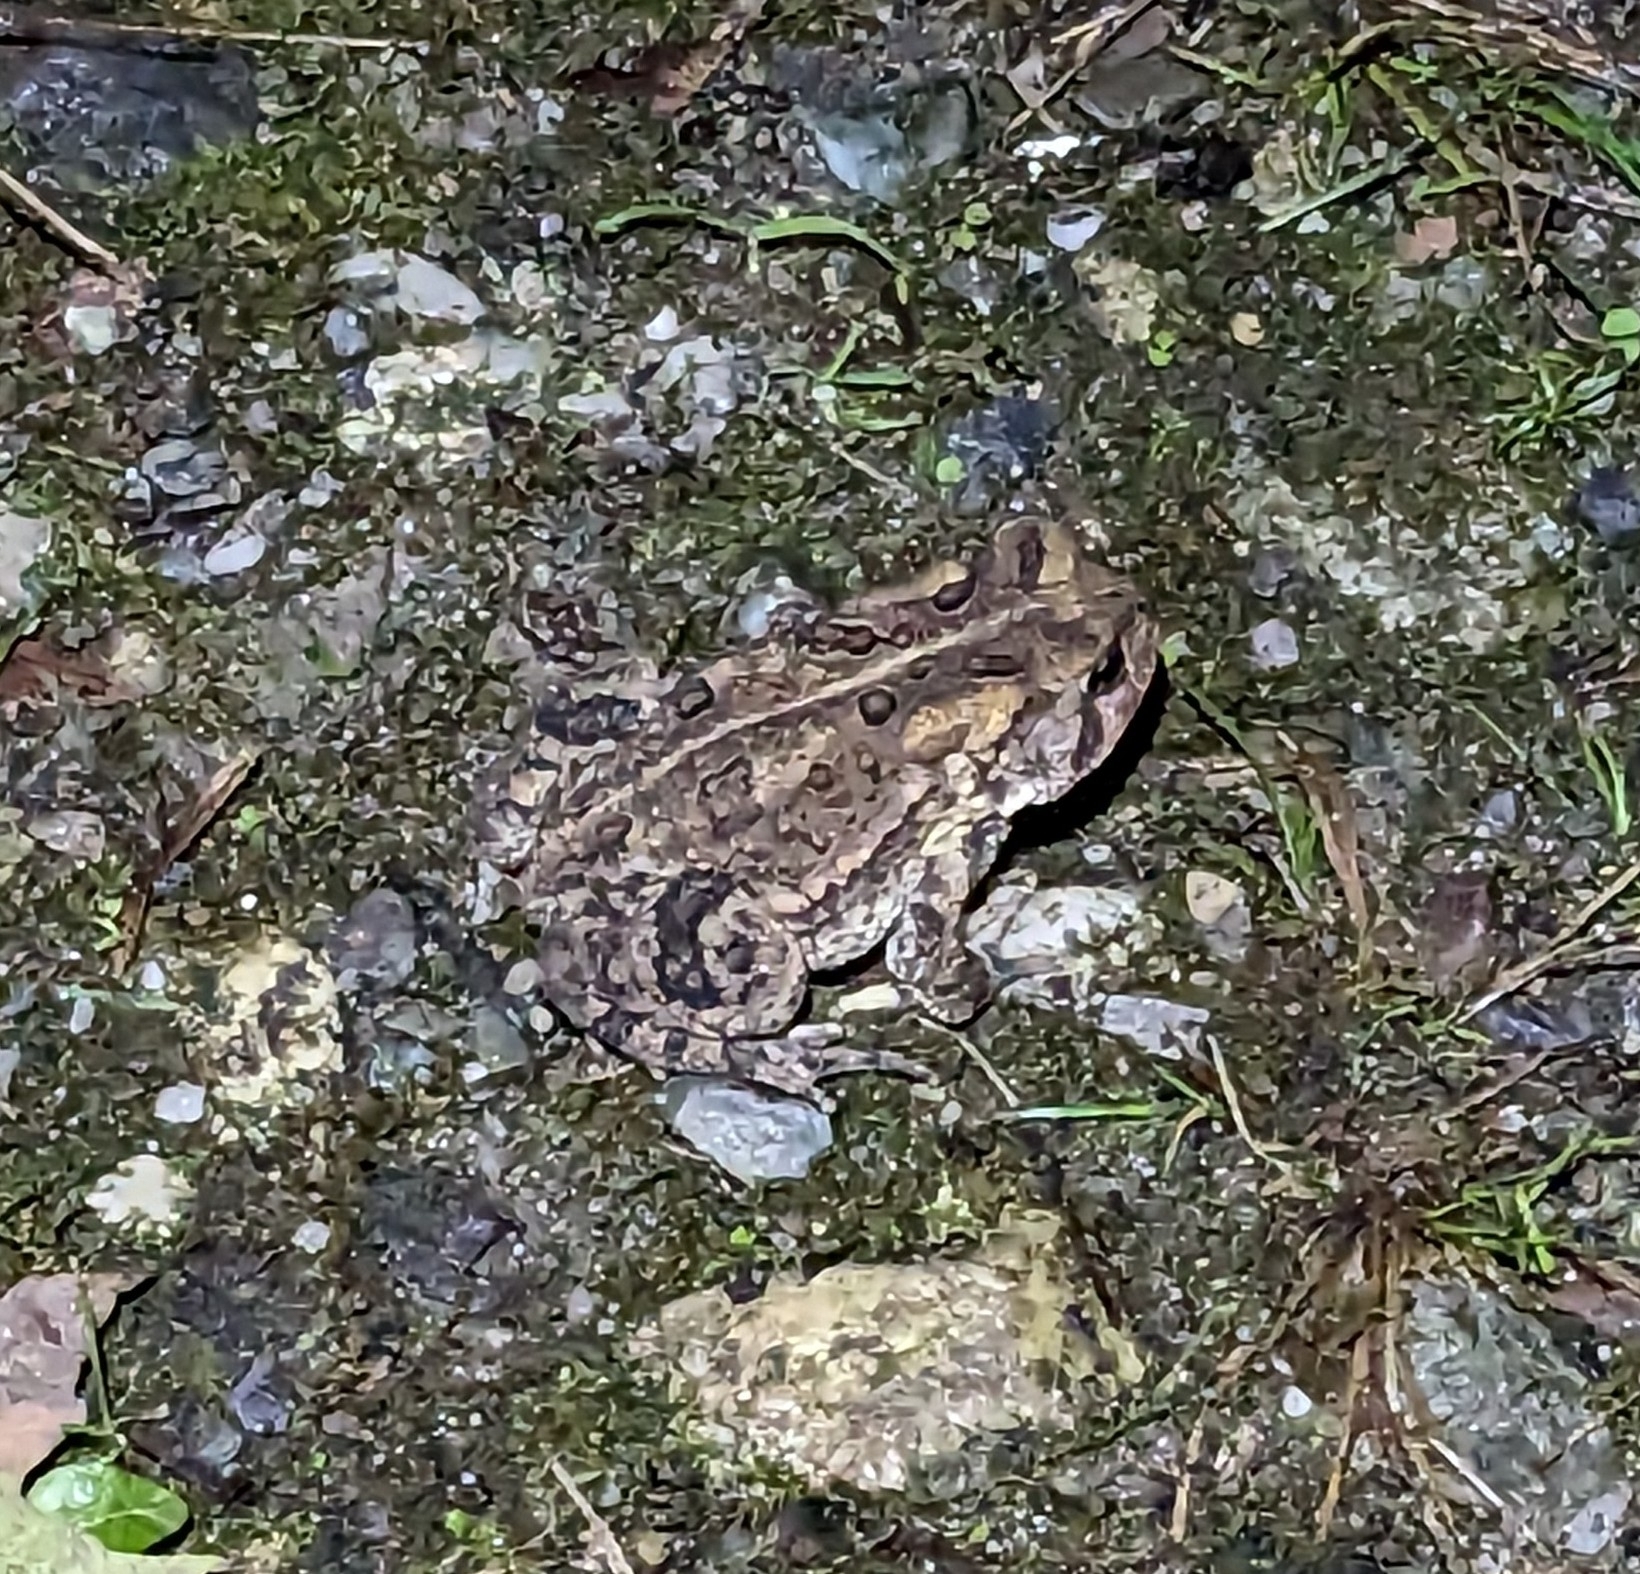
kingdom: Animalia
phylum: Chordata
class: Amphibia
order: Anura
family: Bufonidae
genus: Anaxyrus
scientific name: Anaxyrus americanus
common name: American toad
